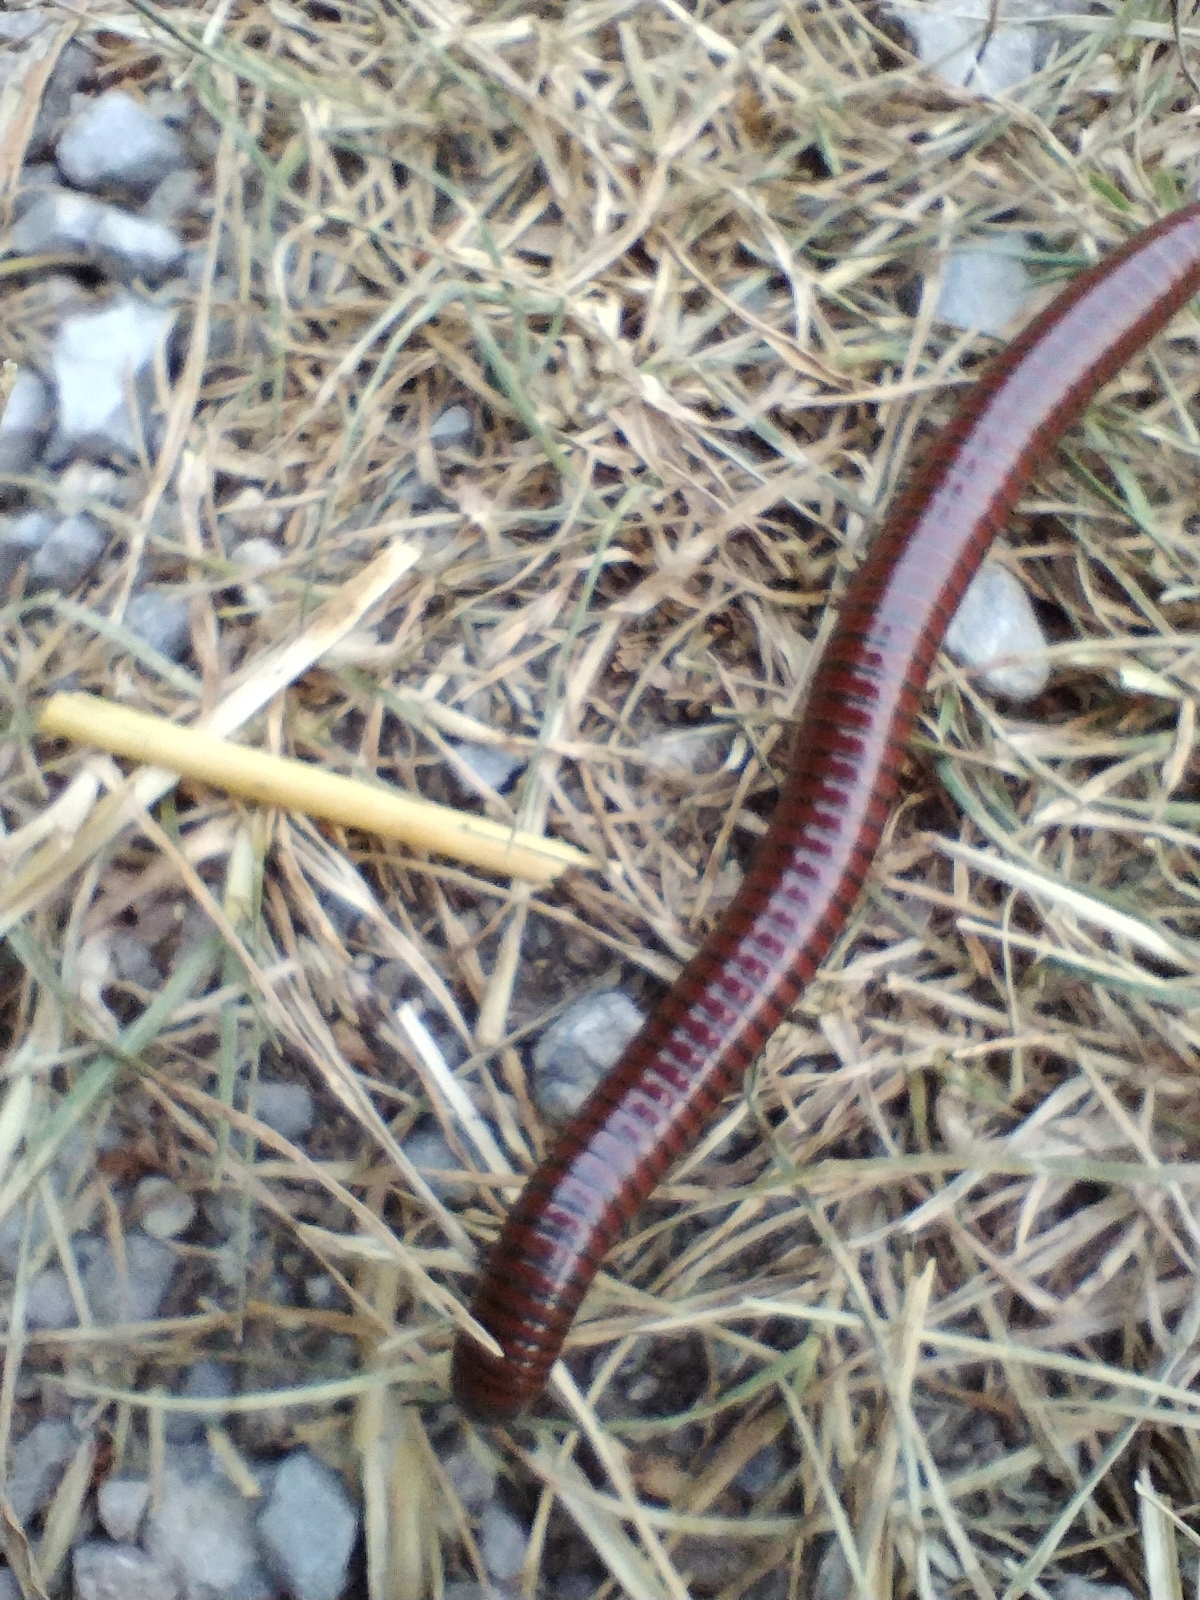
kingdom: Animalia
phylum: Arthropoda
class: Diplopoda
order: Julida
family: Julidae
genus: Pachyiulus
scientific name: Pachyiulus hungaricus
